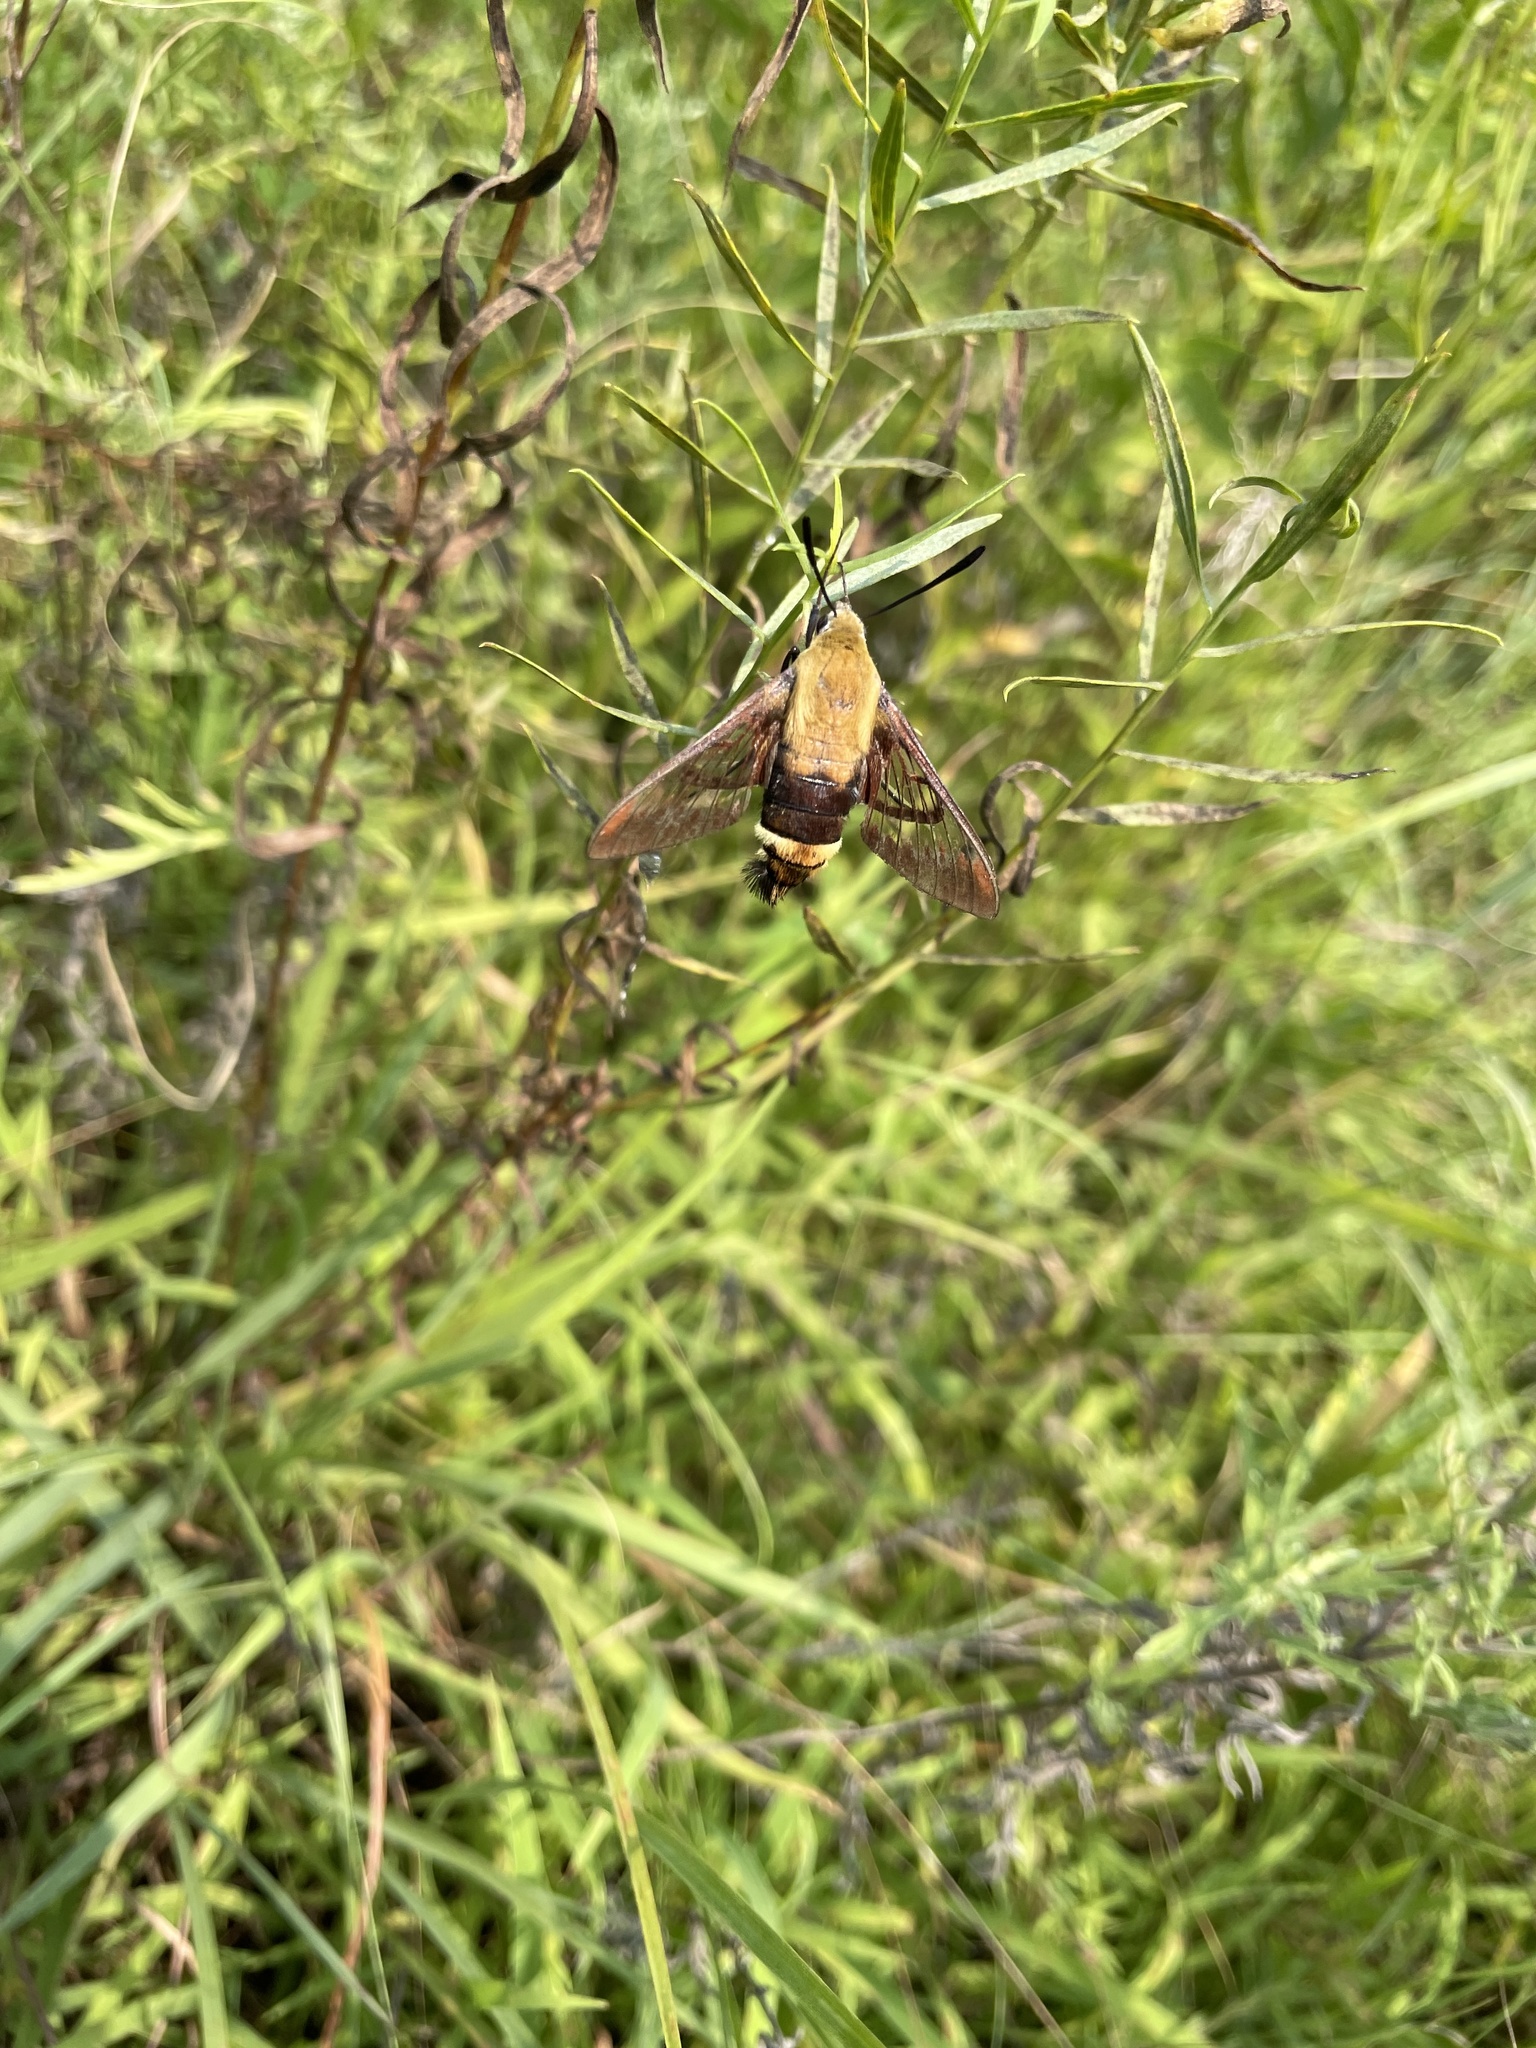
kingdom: Animalia
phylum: Arthropoda
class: Insecta
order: Lepidoptera
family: Sphingidae
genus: Hemaris
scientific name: Hemaris diffinis
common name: Bumblebee moth
